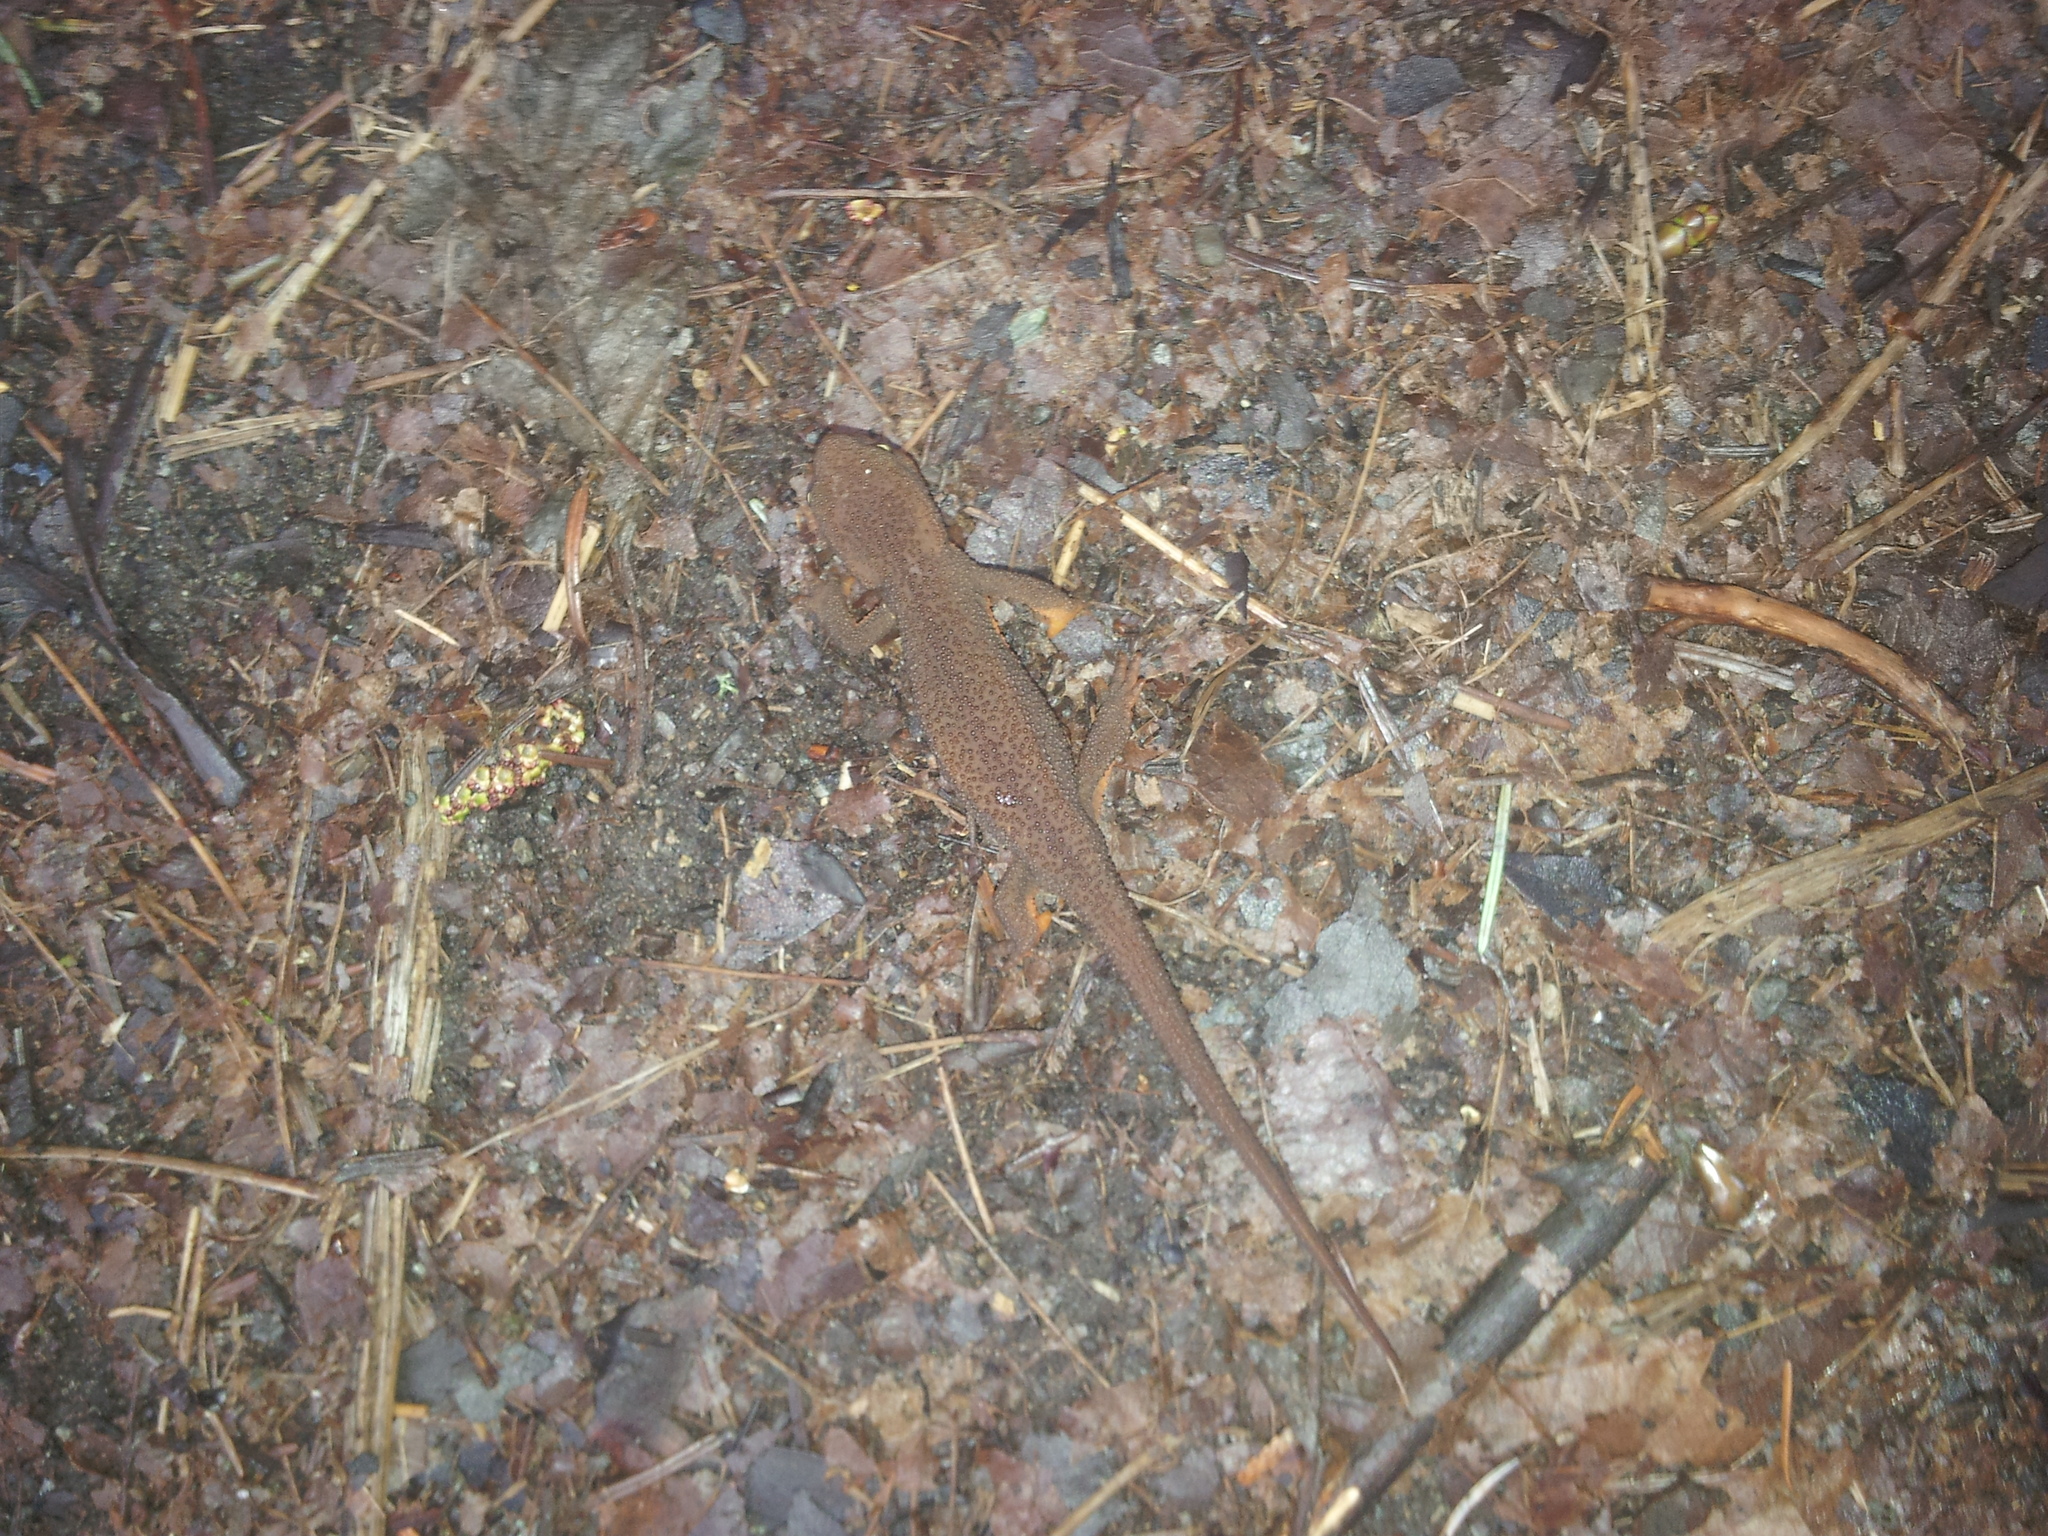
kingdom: Animalia
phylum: Chordata
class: Amphibia
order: Caudata
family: Salamandridae
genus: Taricha
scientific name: Taricha granulosa
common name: Roughskin newt
